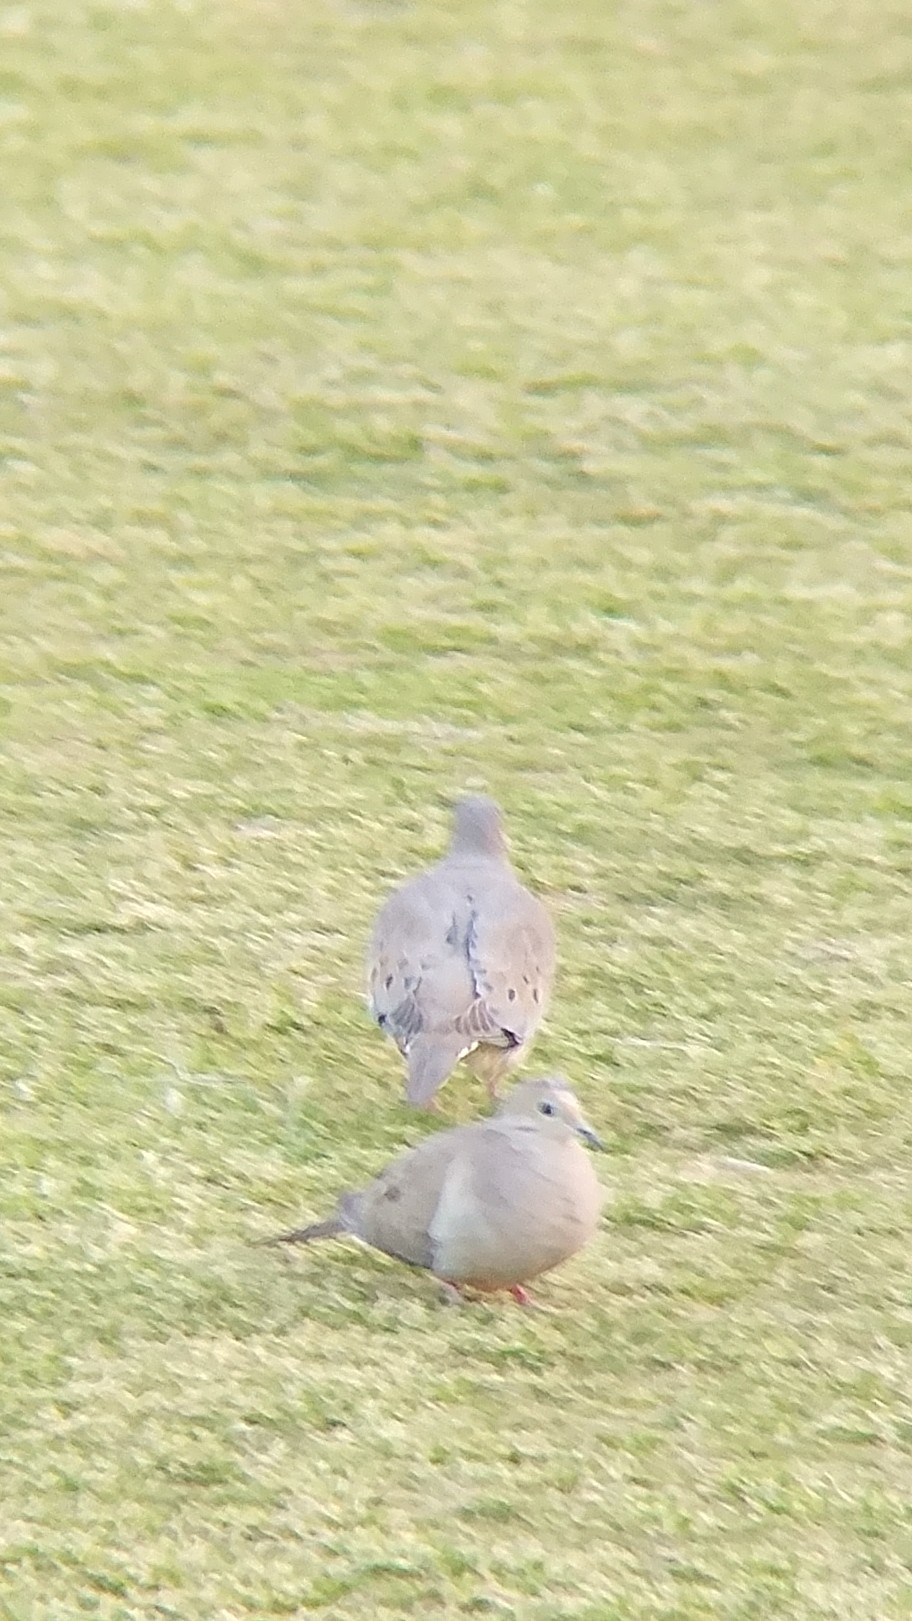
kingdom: Animalia
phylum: Chordata
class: Aves
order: Columbiformes
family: Columbidae
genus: Zenaida
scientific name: Zenaida macroura
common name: Mourning dove
